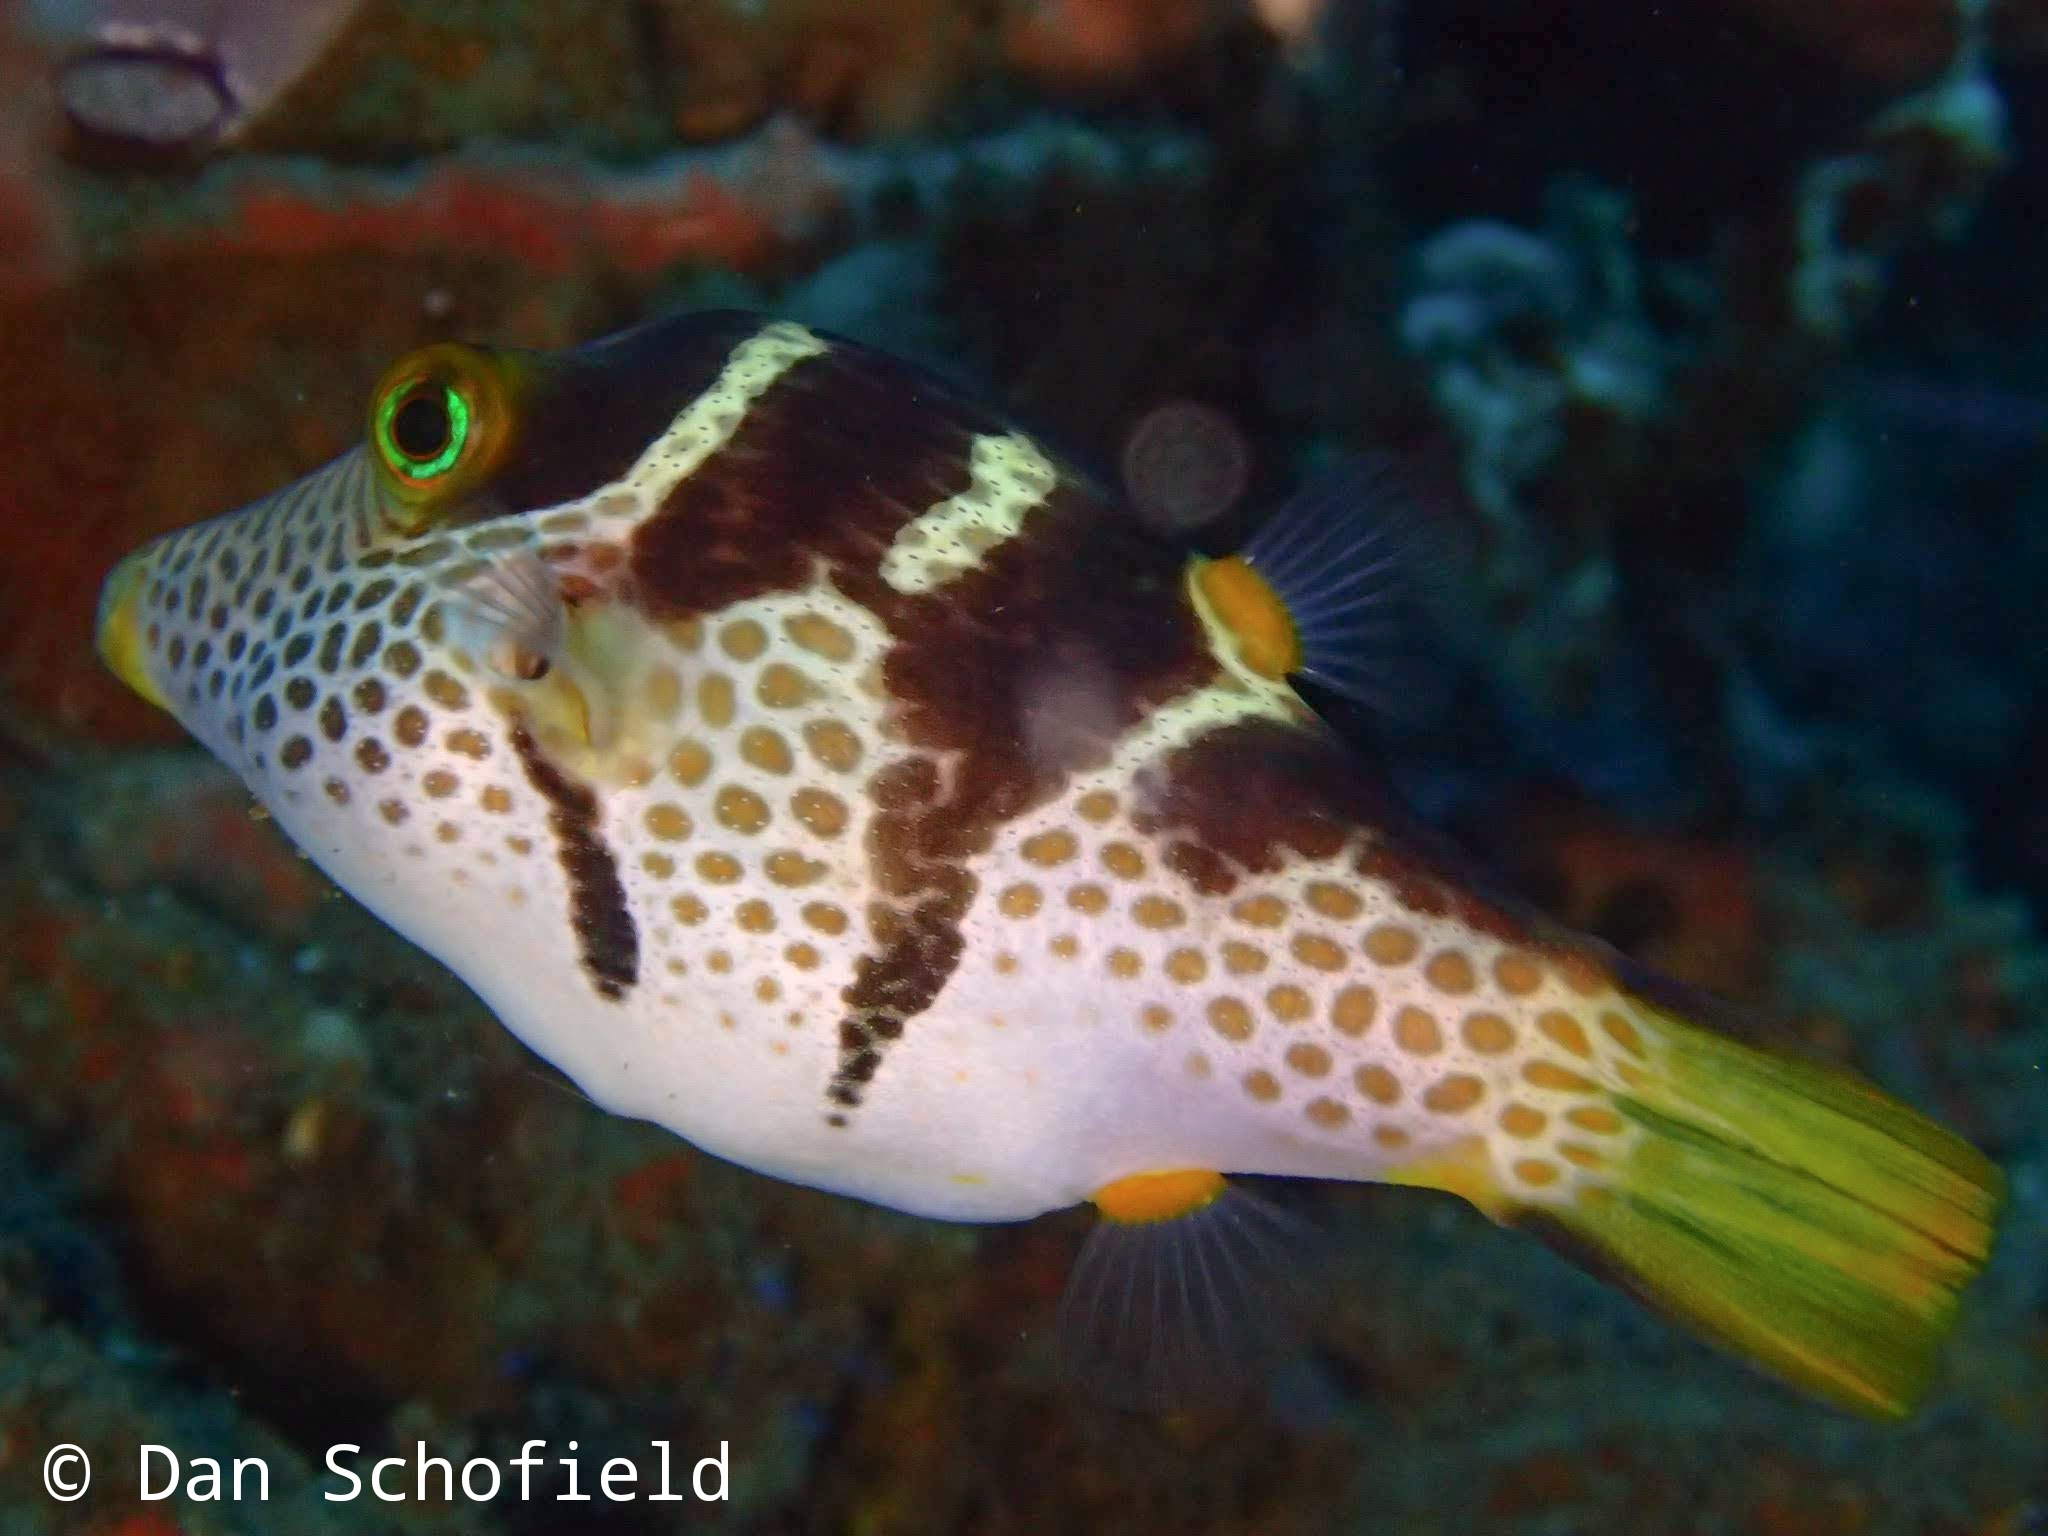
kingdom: Animalia
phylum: Chordata
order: Tetraodontiformes
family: Tetraodontidae
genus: Canthigaster
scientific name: Canthigaster valentini
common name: Banded toby
